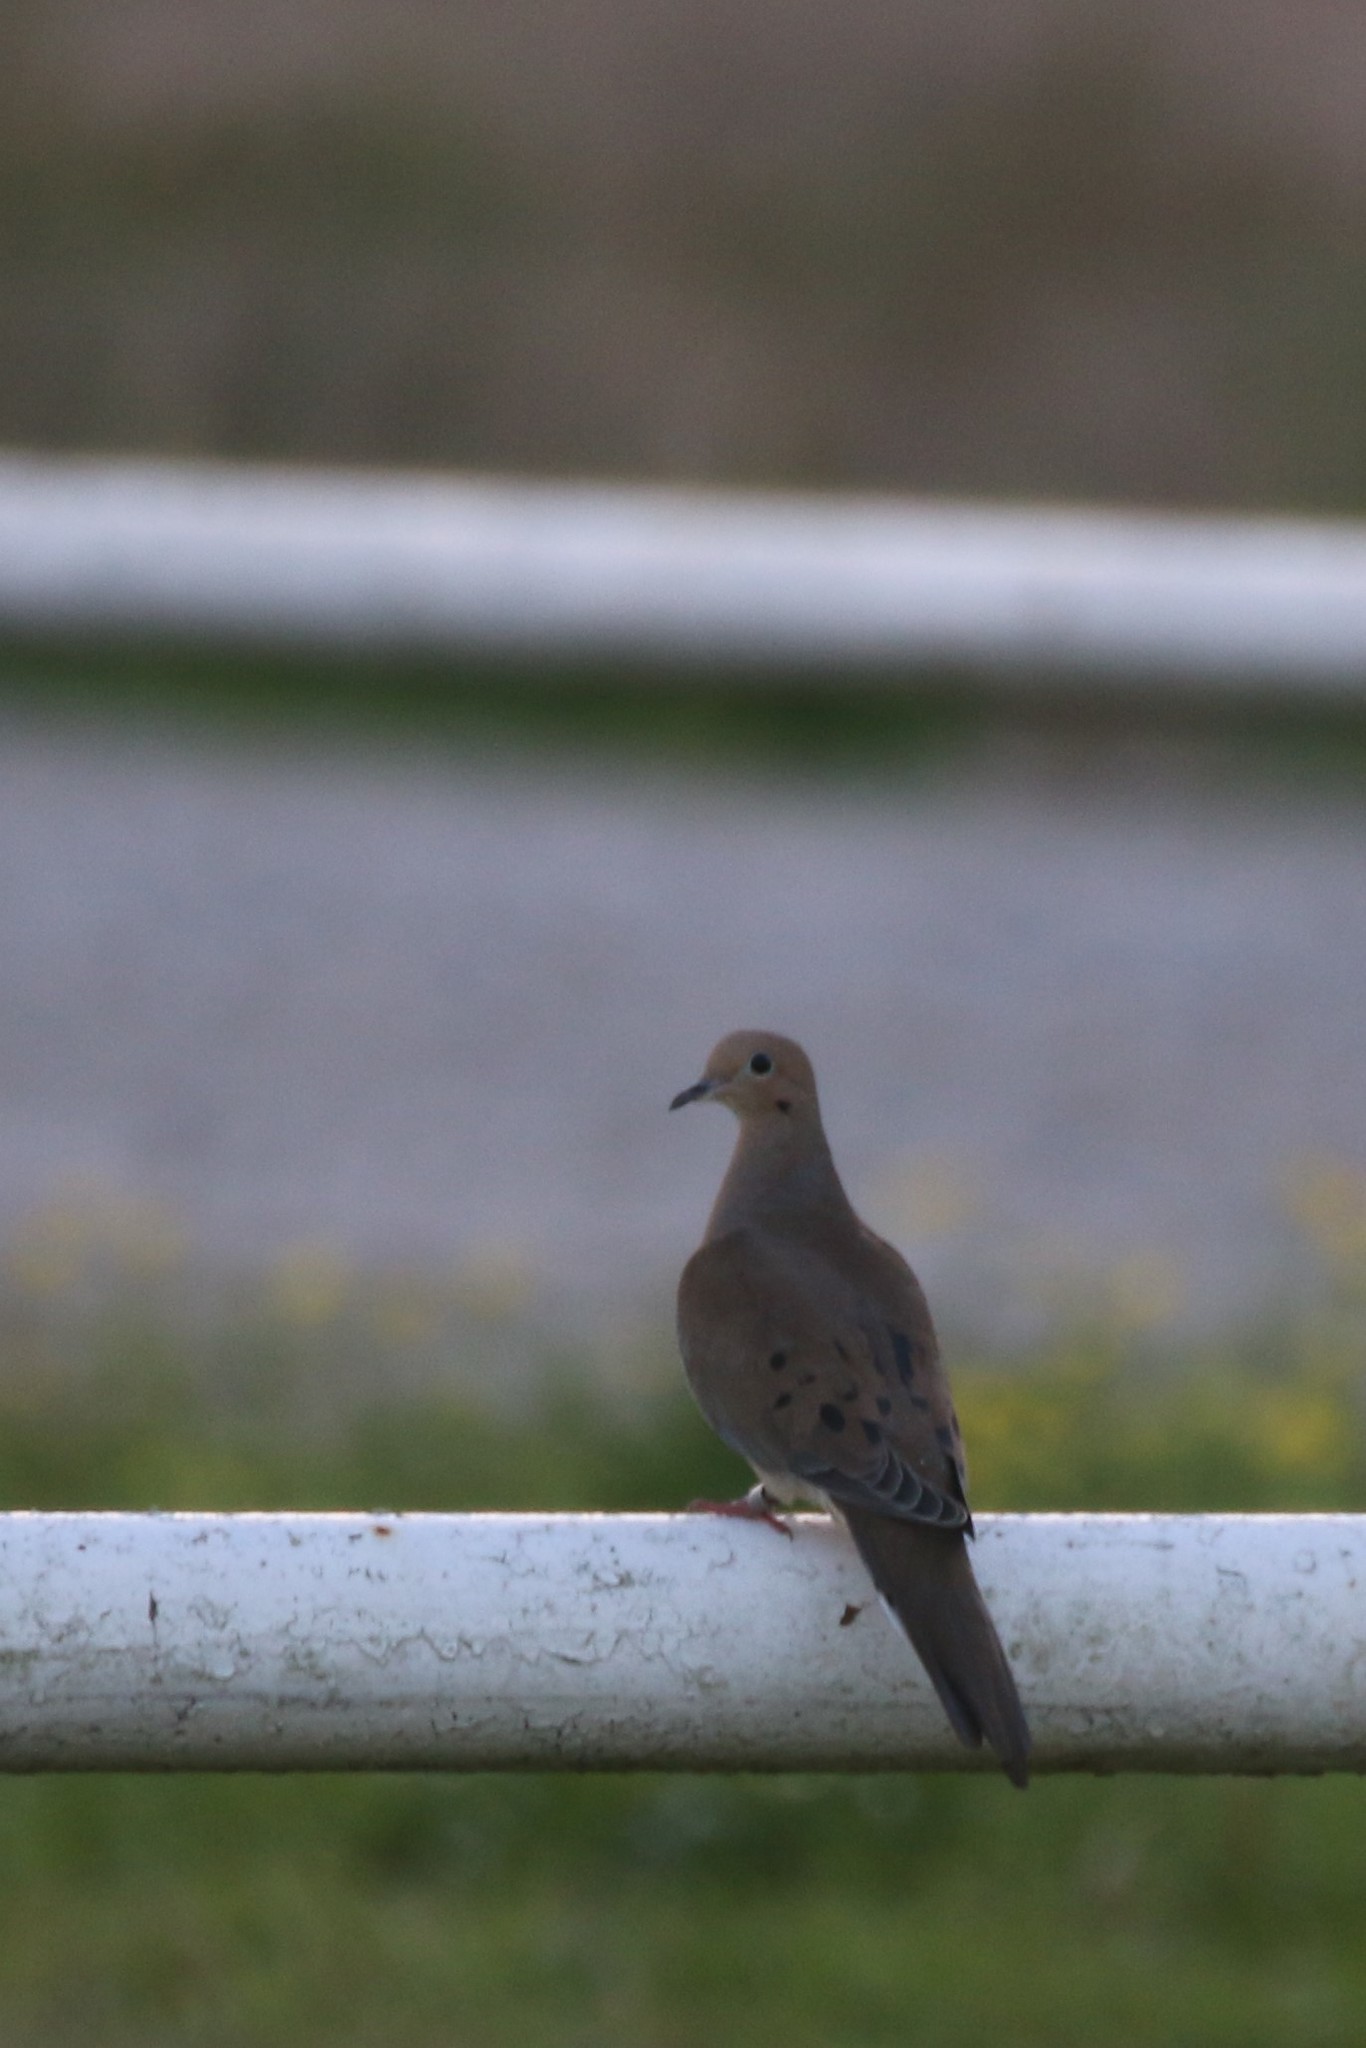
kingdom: Animalia
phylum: Chordata
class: Aves
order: Columbiformes
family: Columbidae
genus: Zenaida
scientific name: Zenaida macroura
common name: Mourning dove
